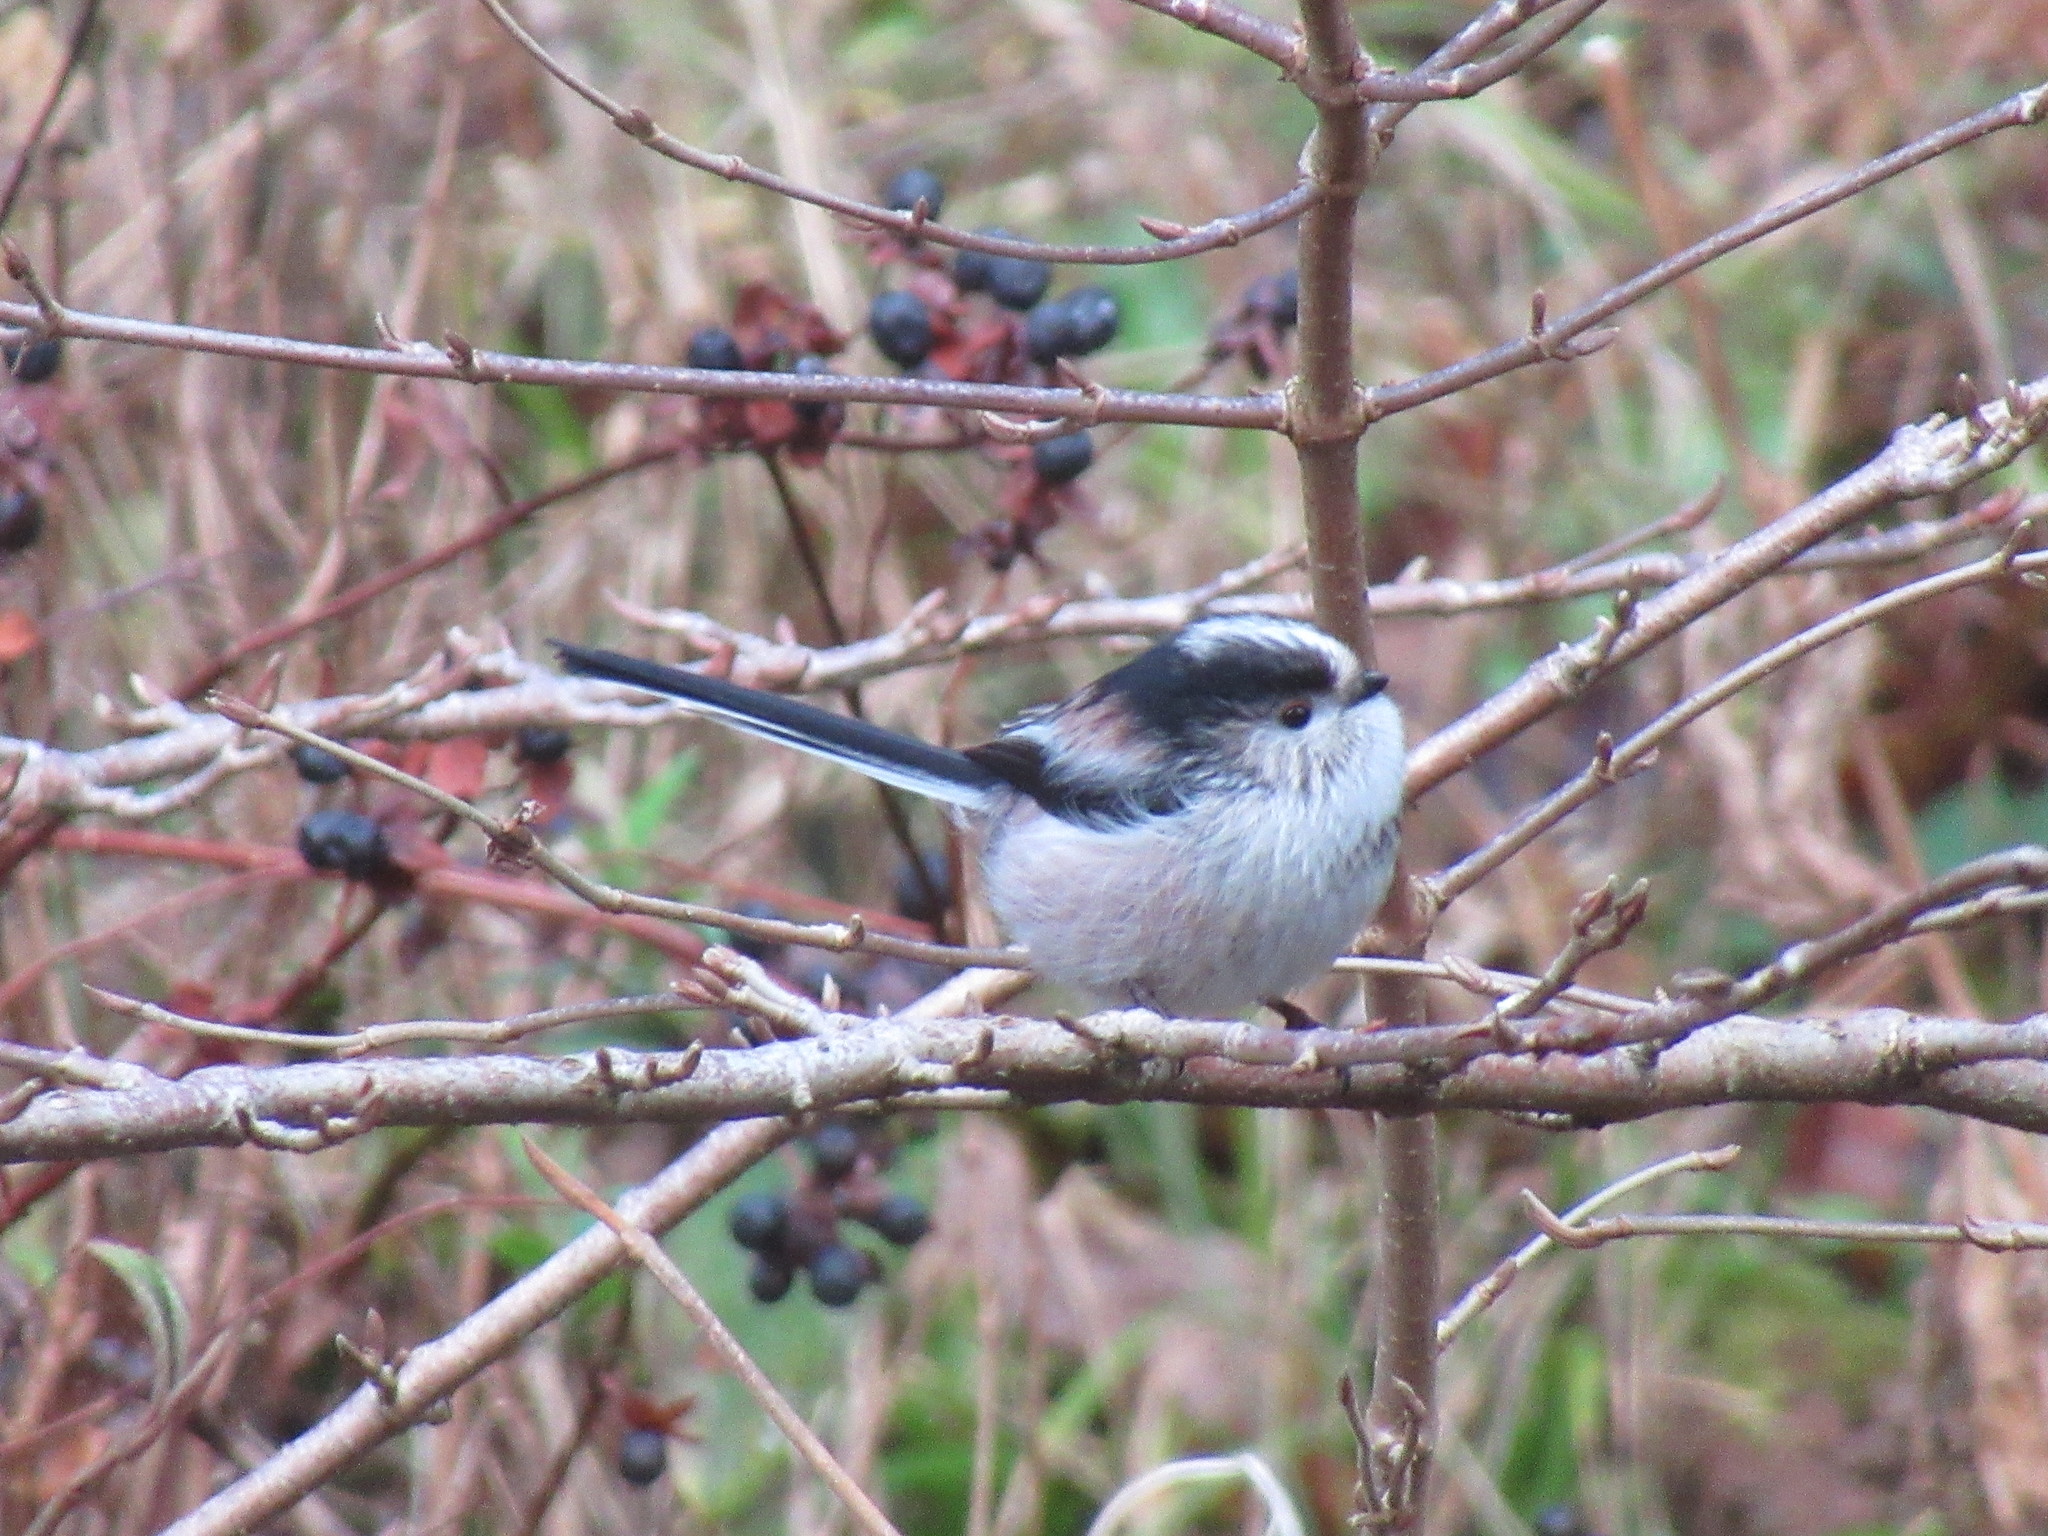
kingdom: Animalia
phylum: Chordata
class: Aves
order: Passeriformes
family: Aegithalidae
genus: Aegithalos
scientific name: Aegithalos caudatus
